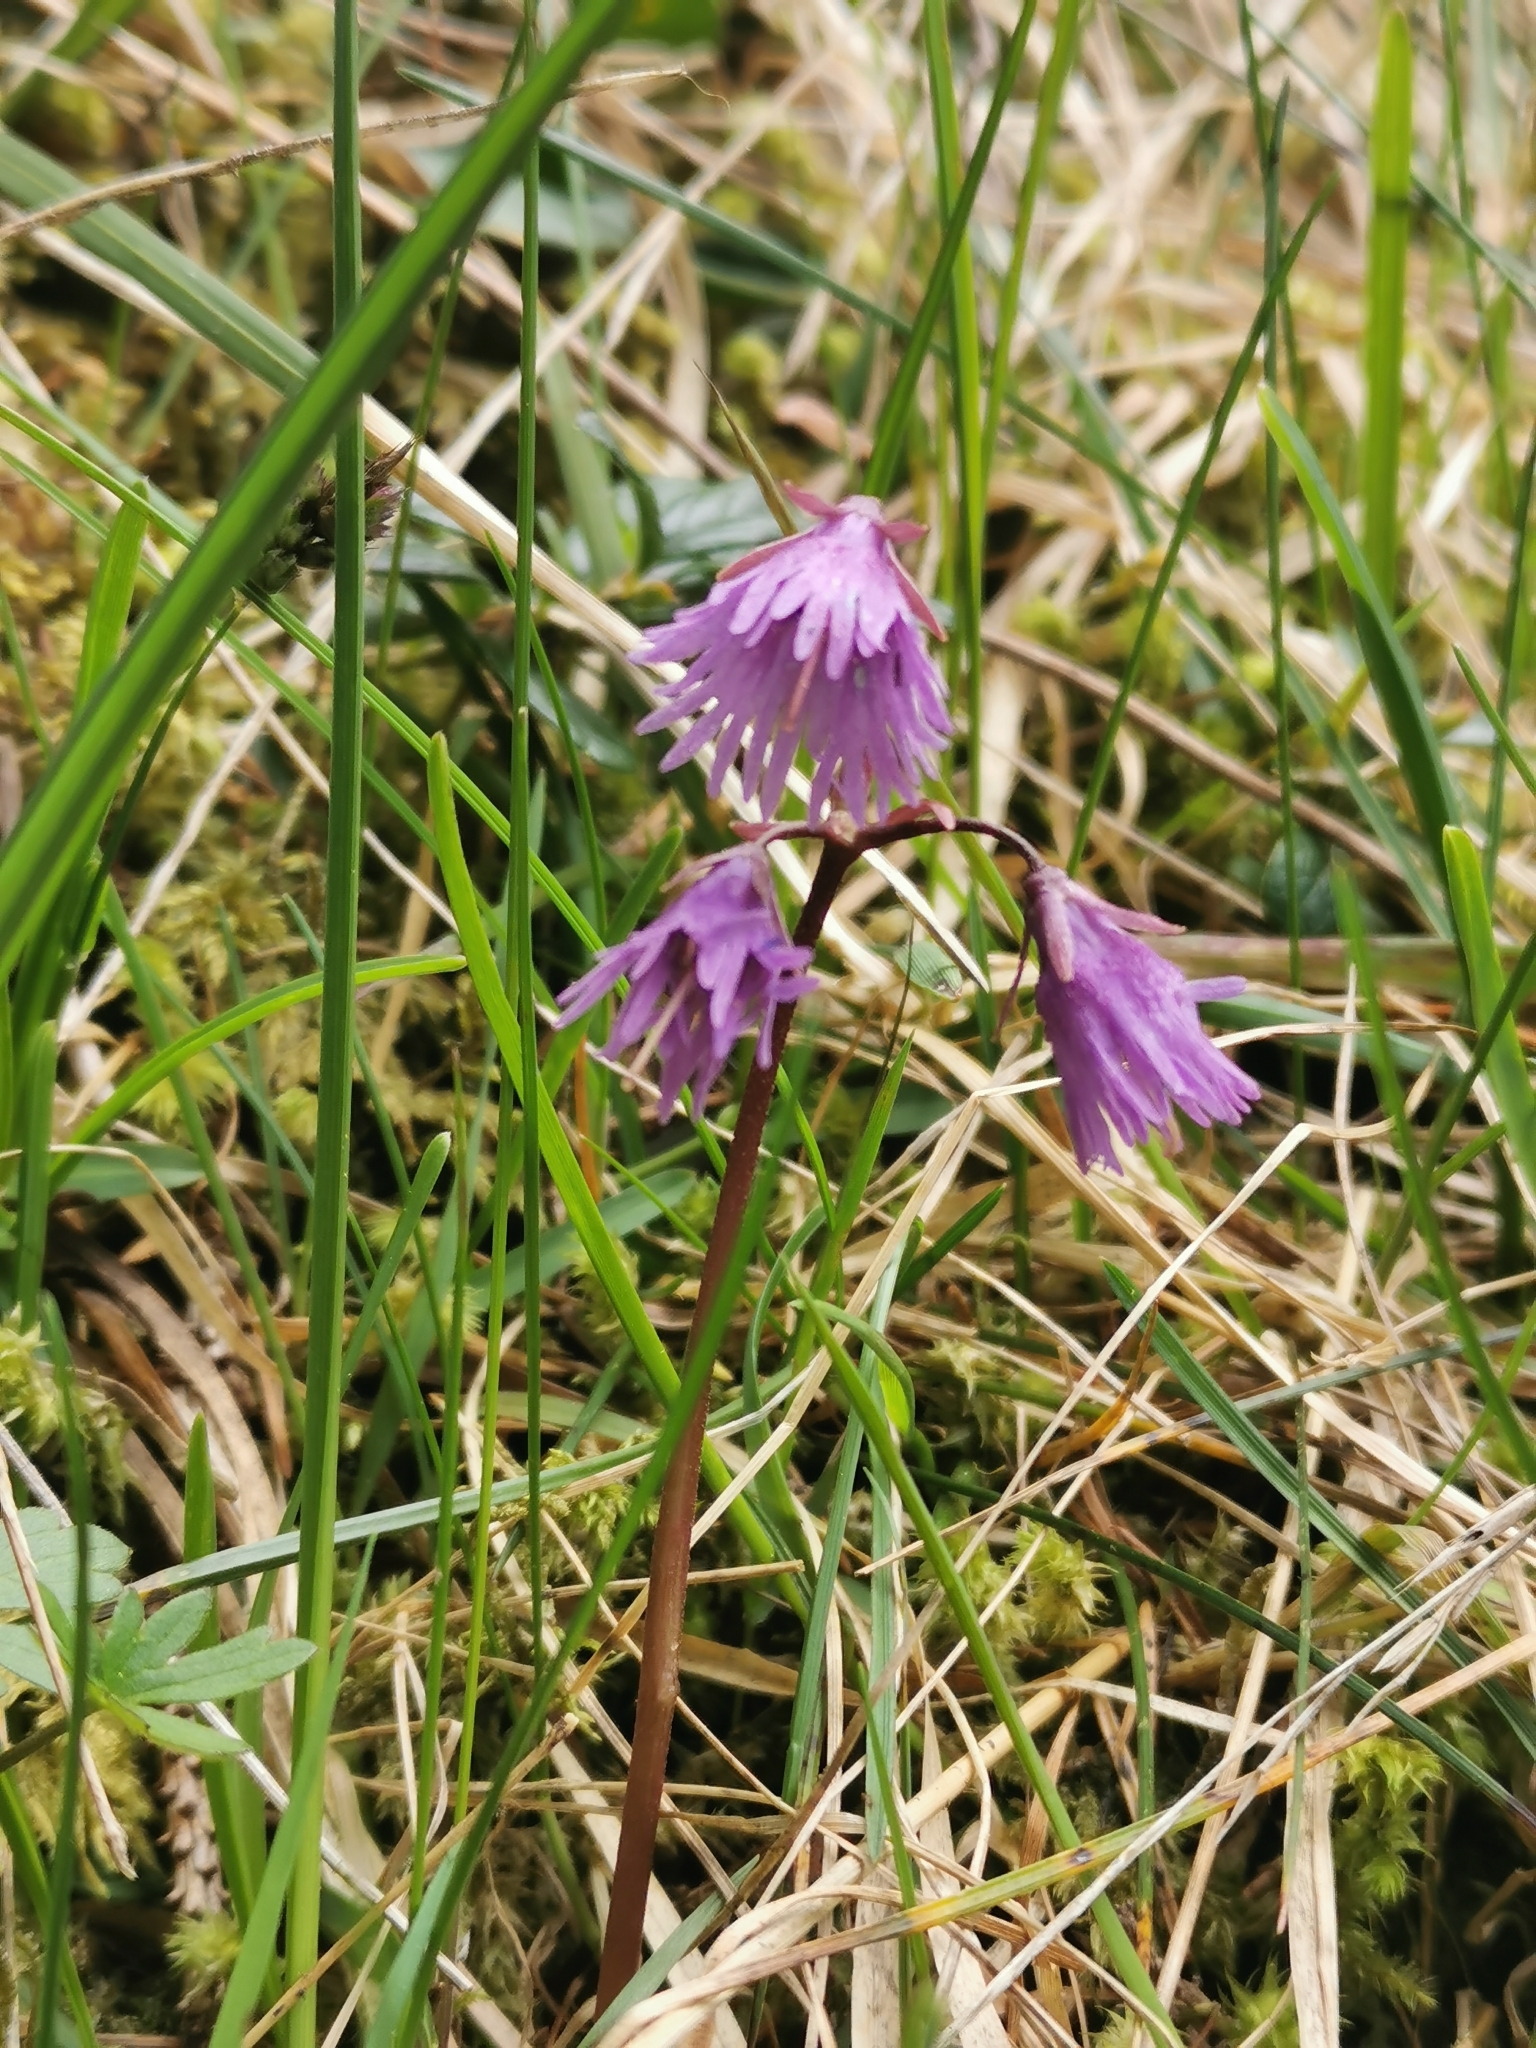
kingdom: Plantae
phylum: Tracheophyta
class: Magnoliopsida
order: Ericales
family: Primulaceae
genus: Soldanella
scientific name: Soldanella alpina
